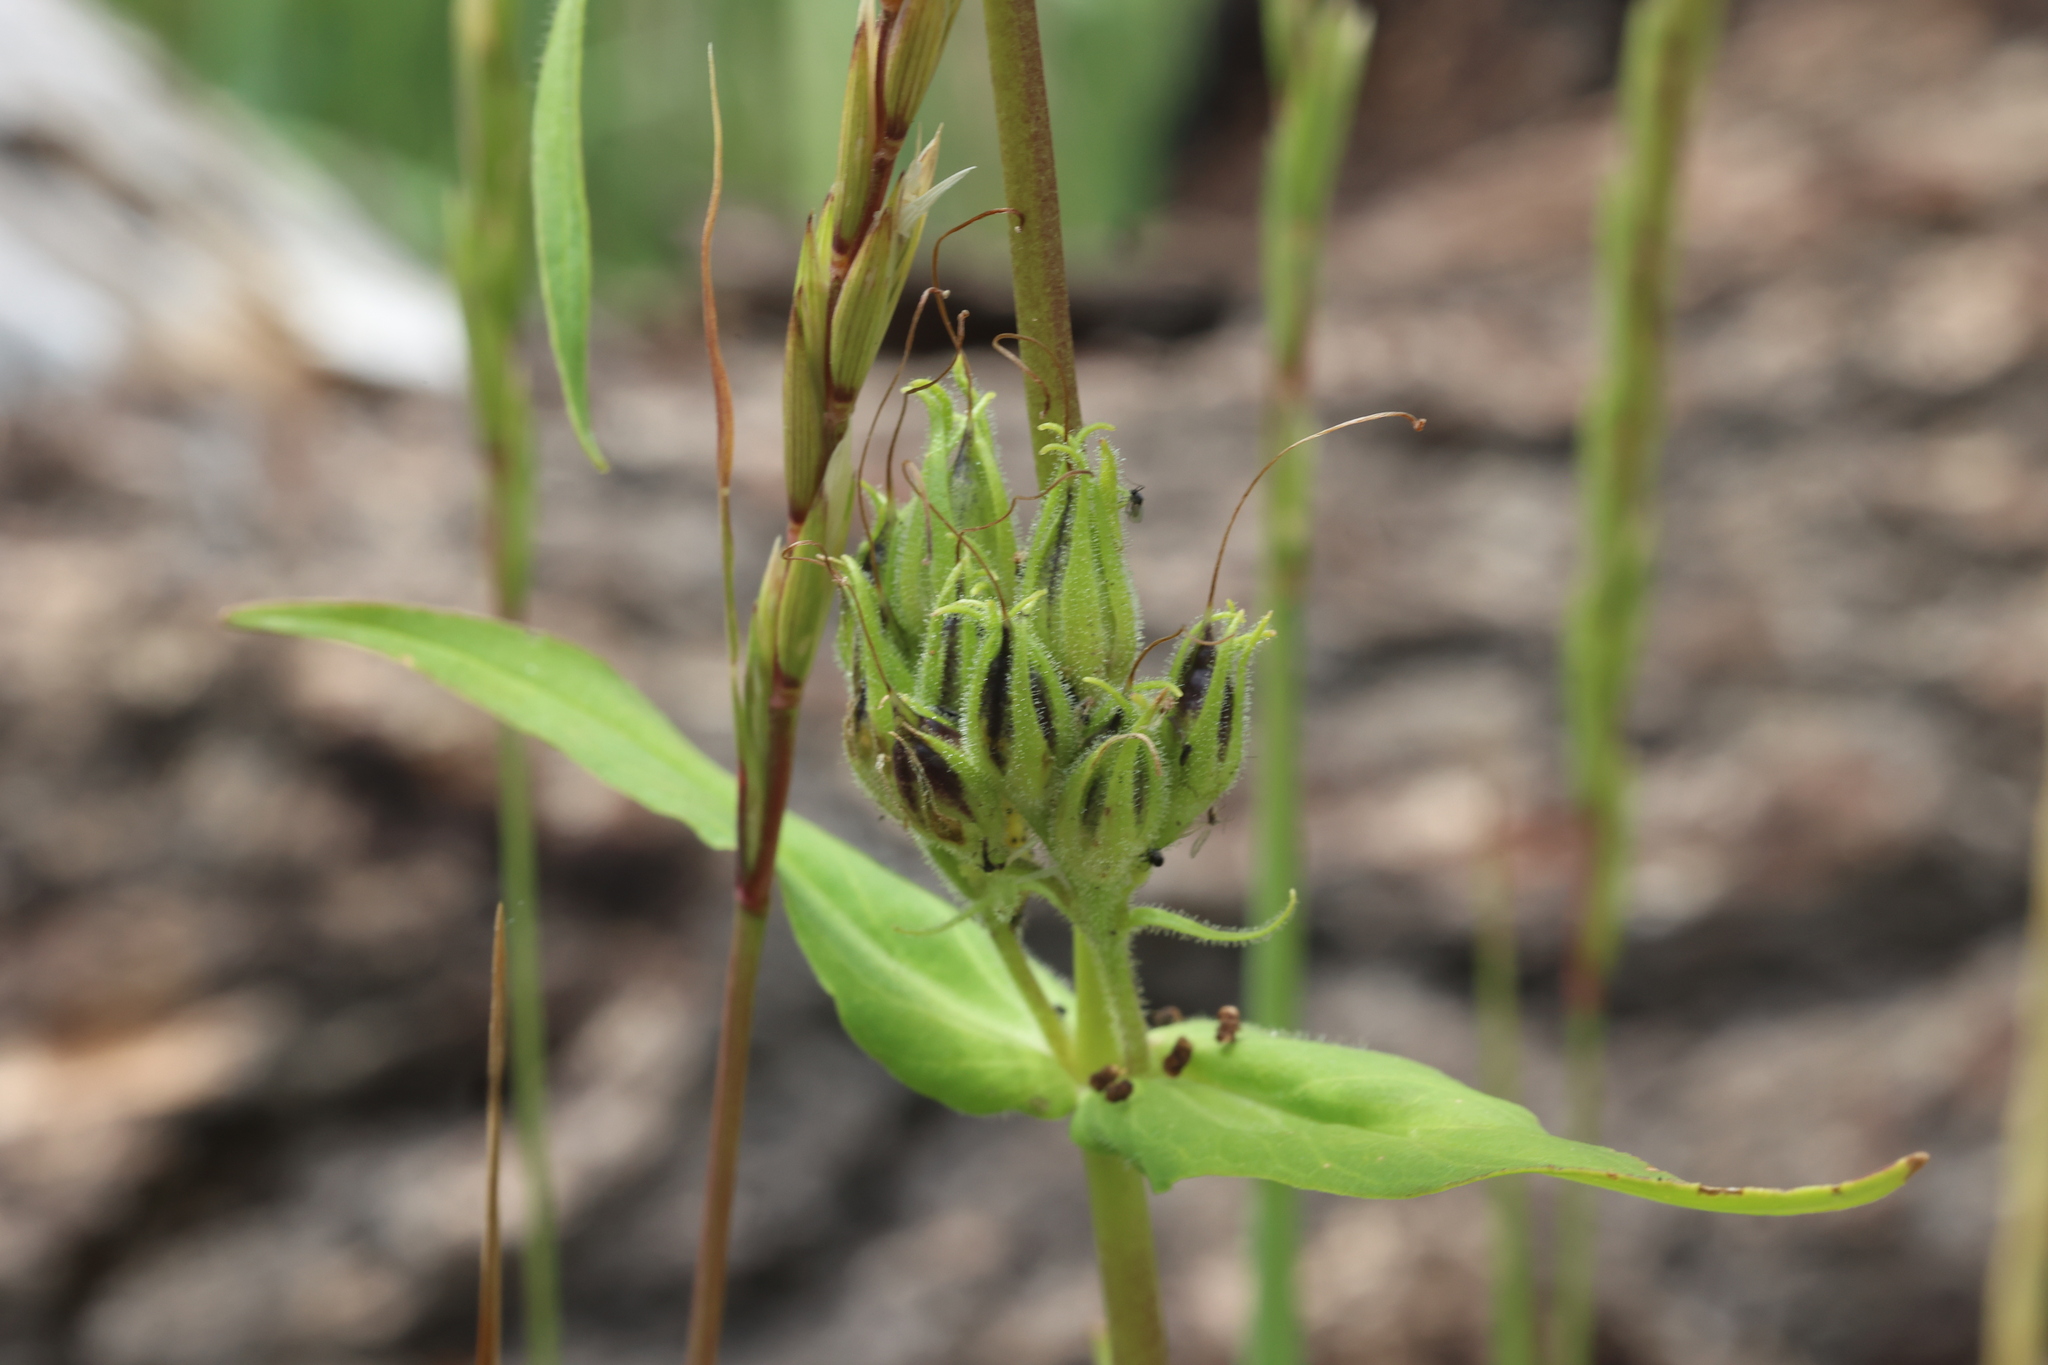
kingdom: Plantae
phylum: Tracheophyta
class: Magnoliopsida
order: Lamiales
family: Plantaginaceae
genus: Penstemon
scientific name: Penstemon whippleanus
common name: Whipple's penstemon
